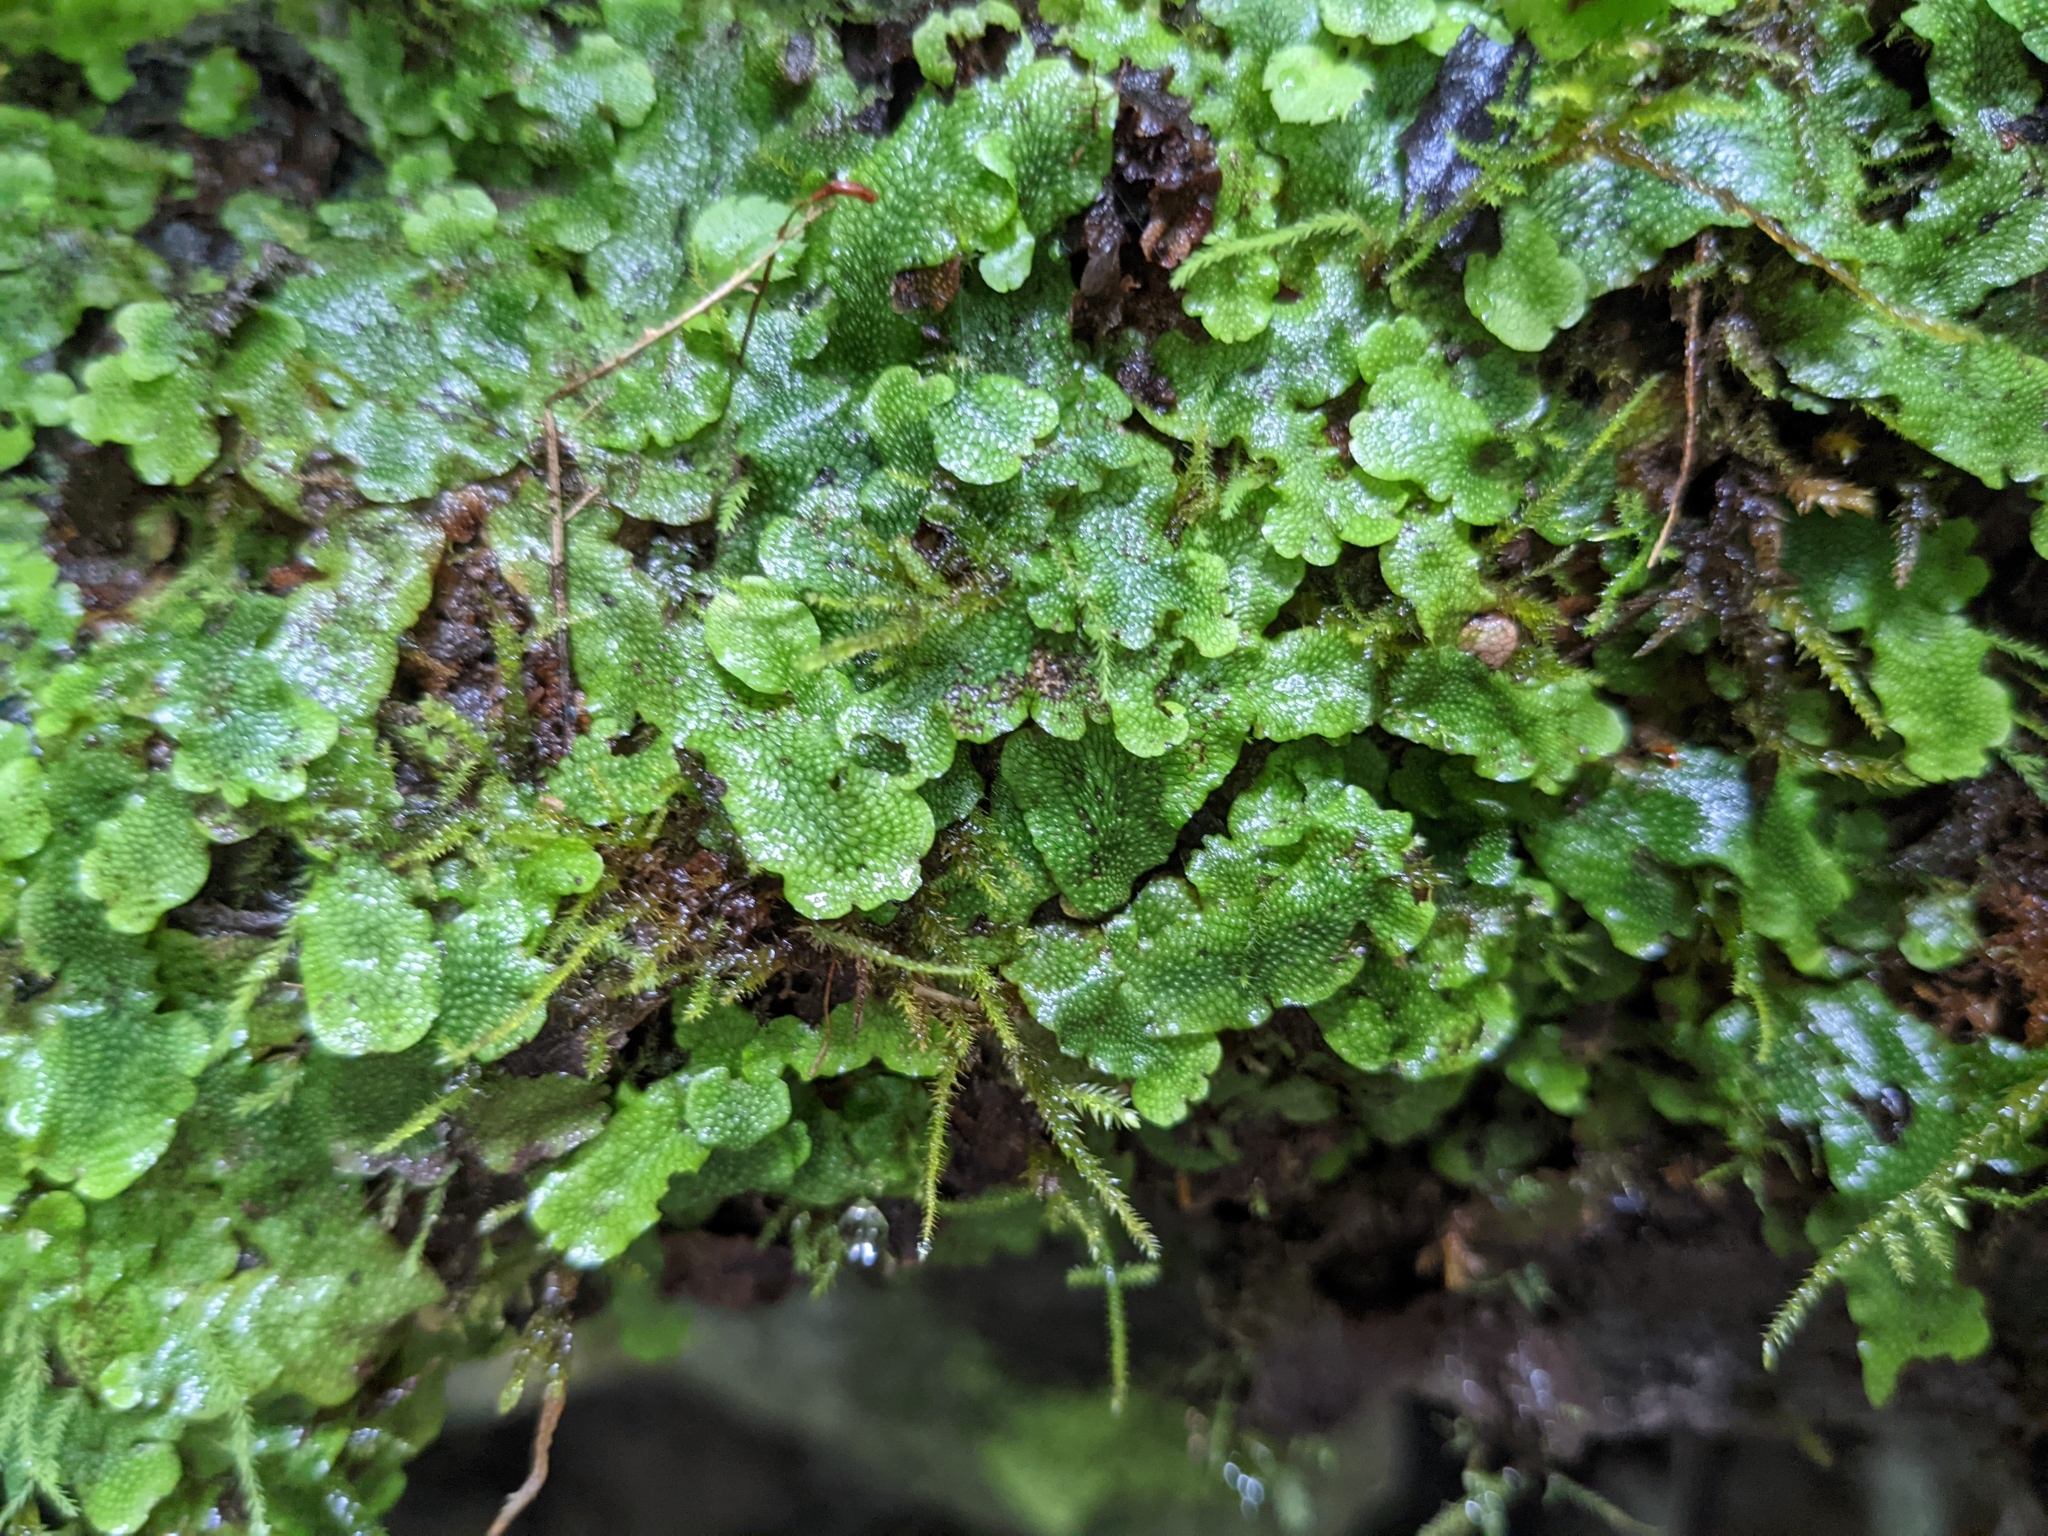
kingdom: Plantae
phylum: Marchantiophyta
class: Marchantiopsida
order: Marchantiales
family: Conocephalaceae
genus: Conocephalum
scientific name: Conocephalum salebrosum
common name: Cat-tongue liverwort
